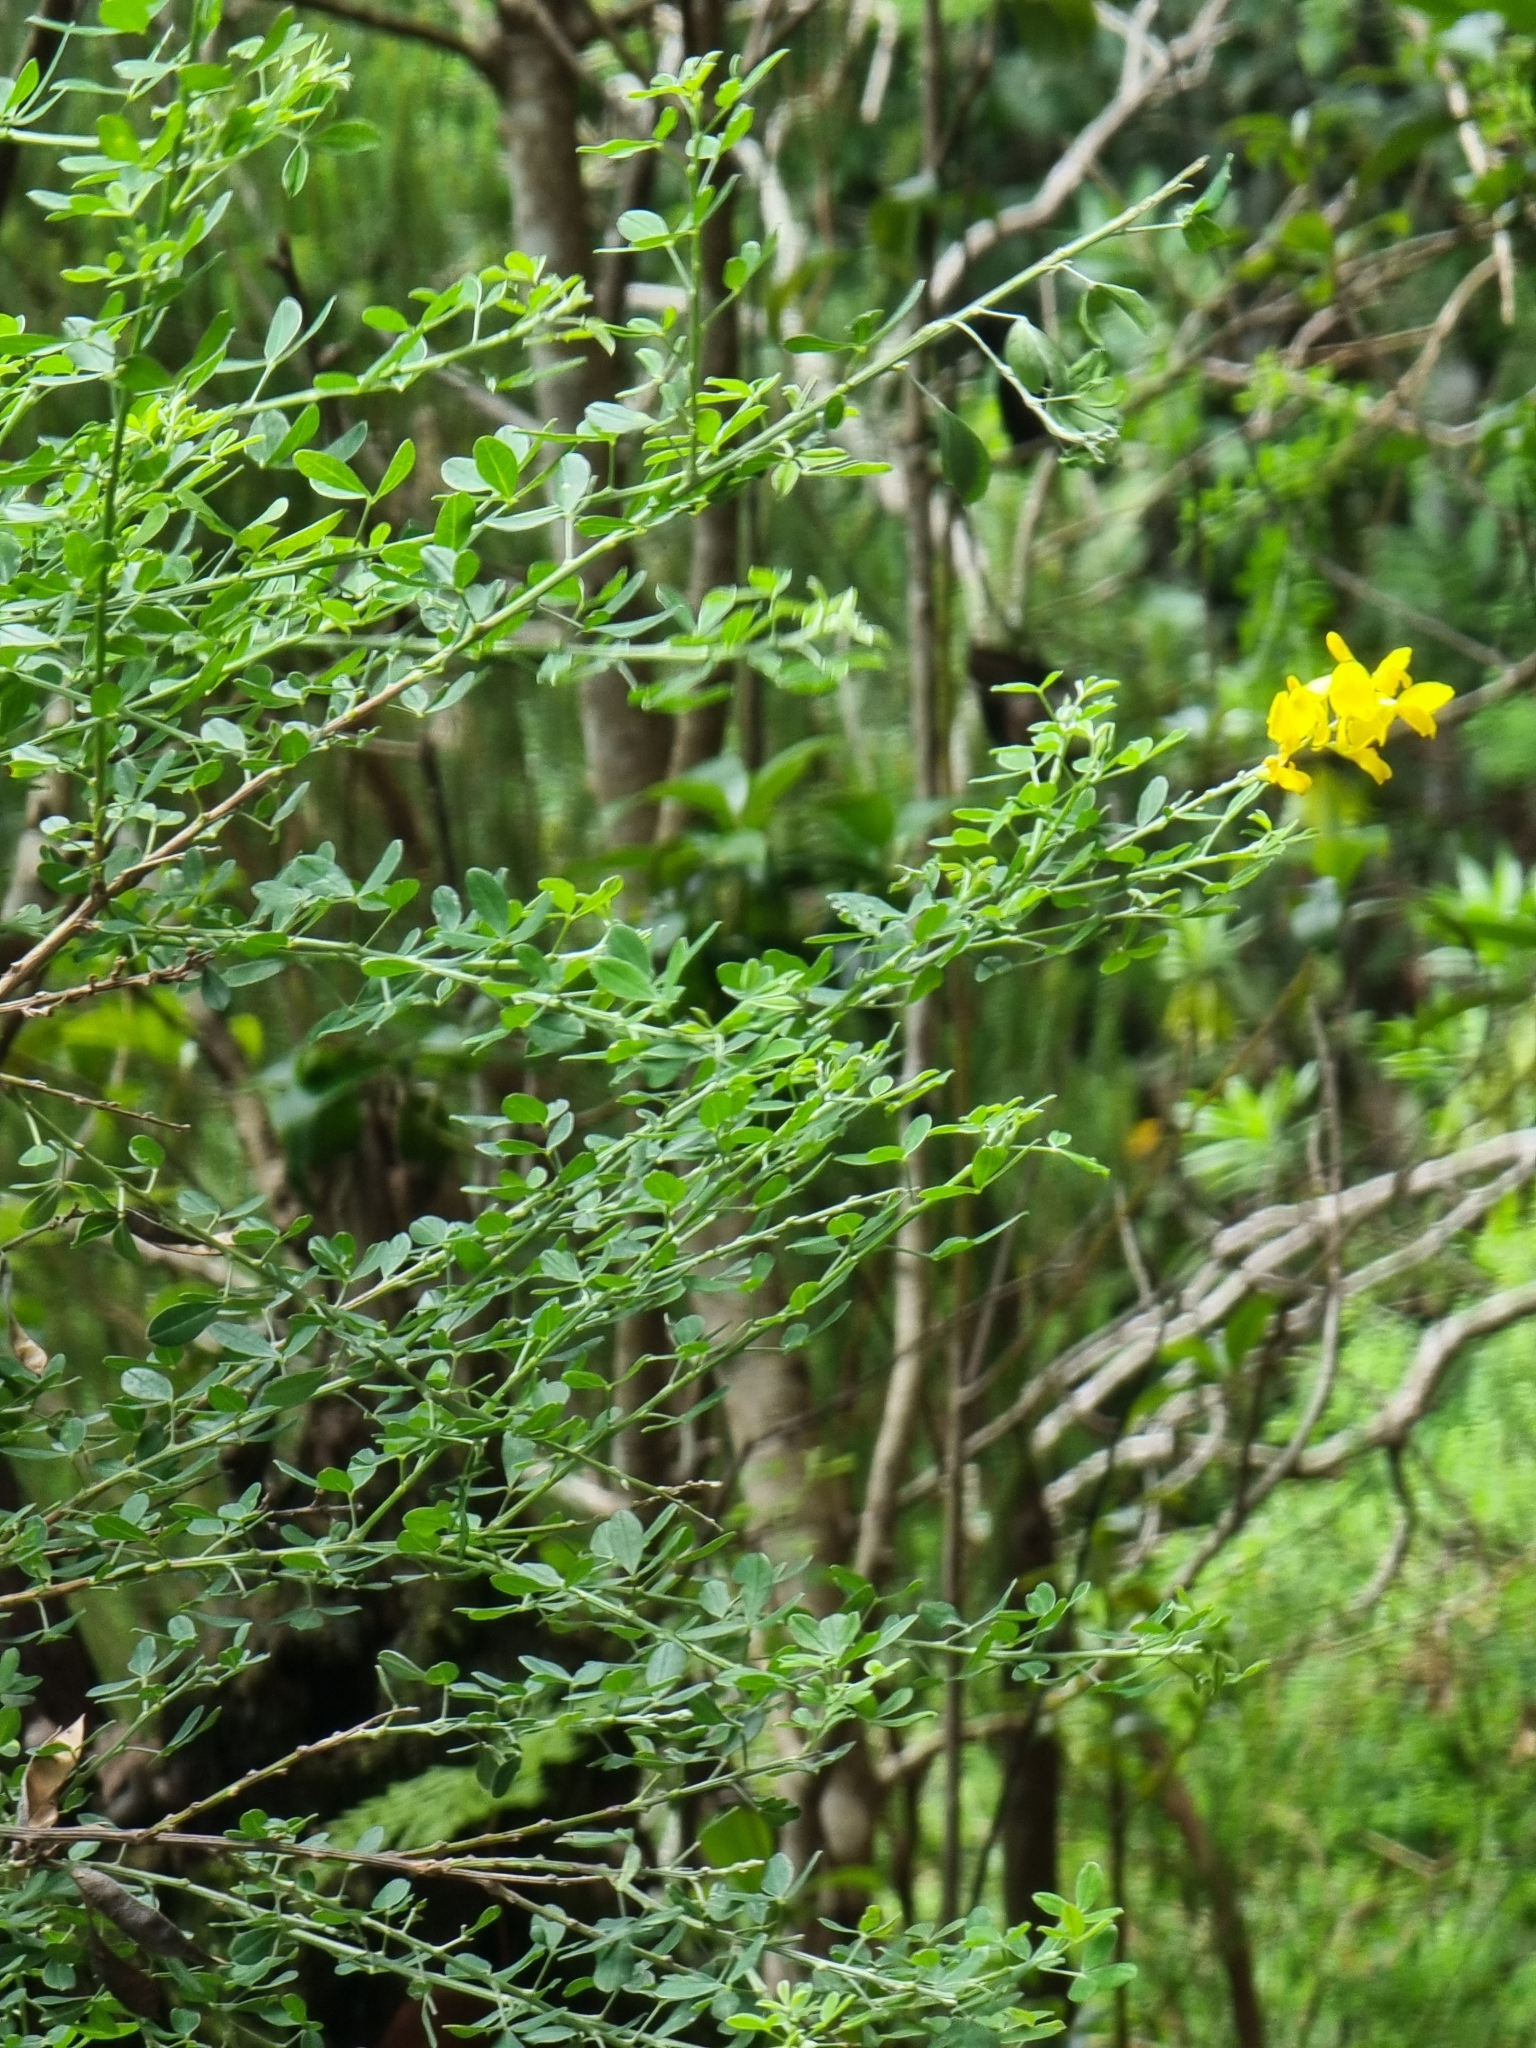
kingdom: Plantae
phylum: Tracheophyta
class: Magnoliopsida
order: Fabales
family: Fabaceae
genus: Genista
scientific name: Genista maderensis
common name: Madeira dyer's greenweed
